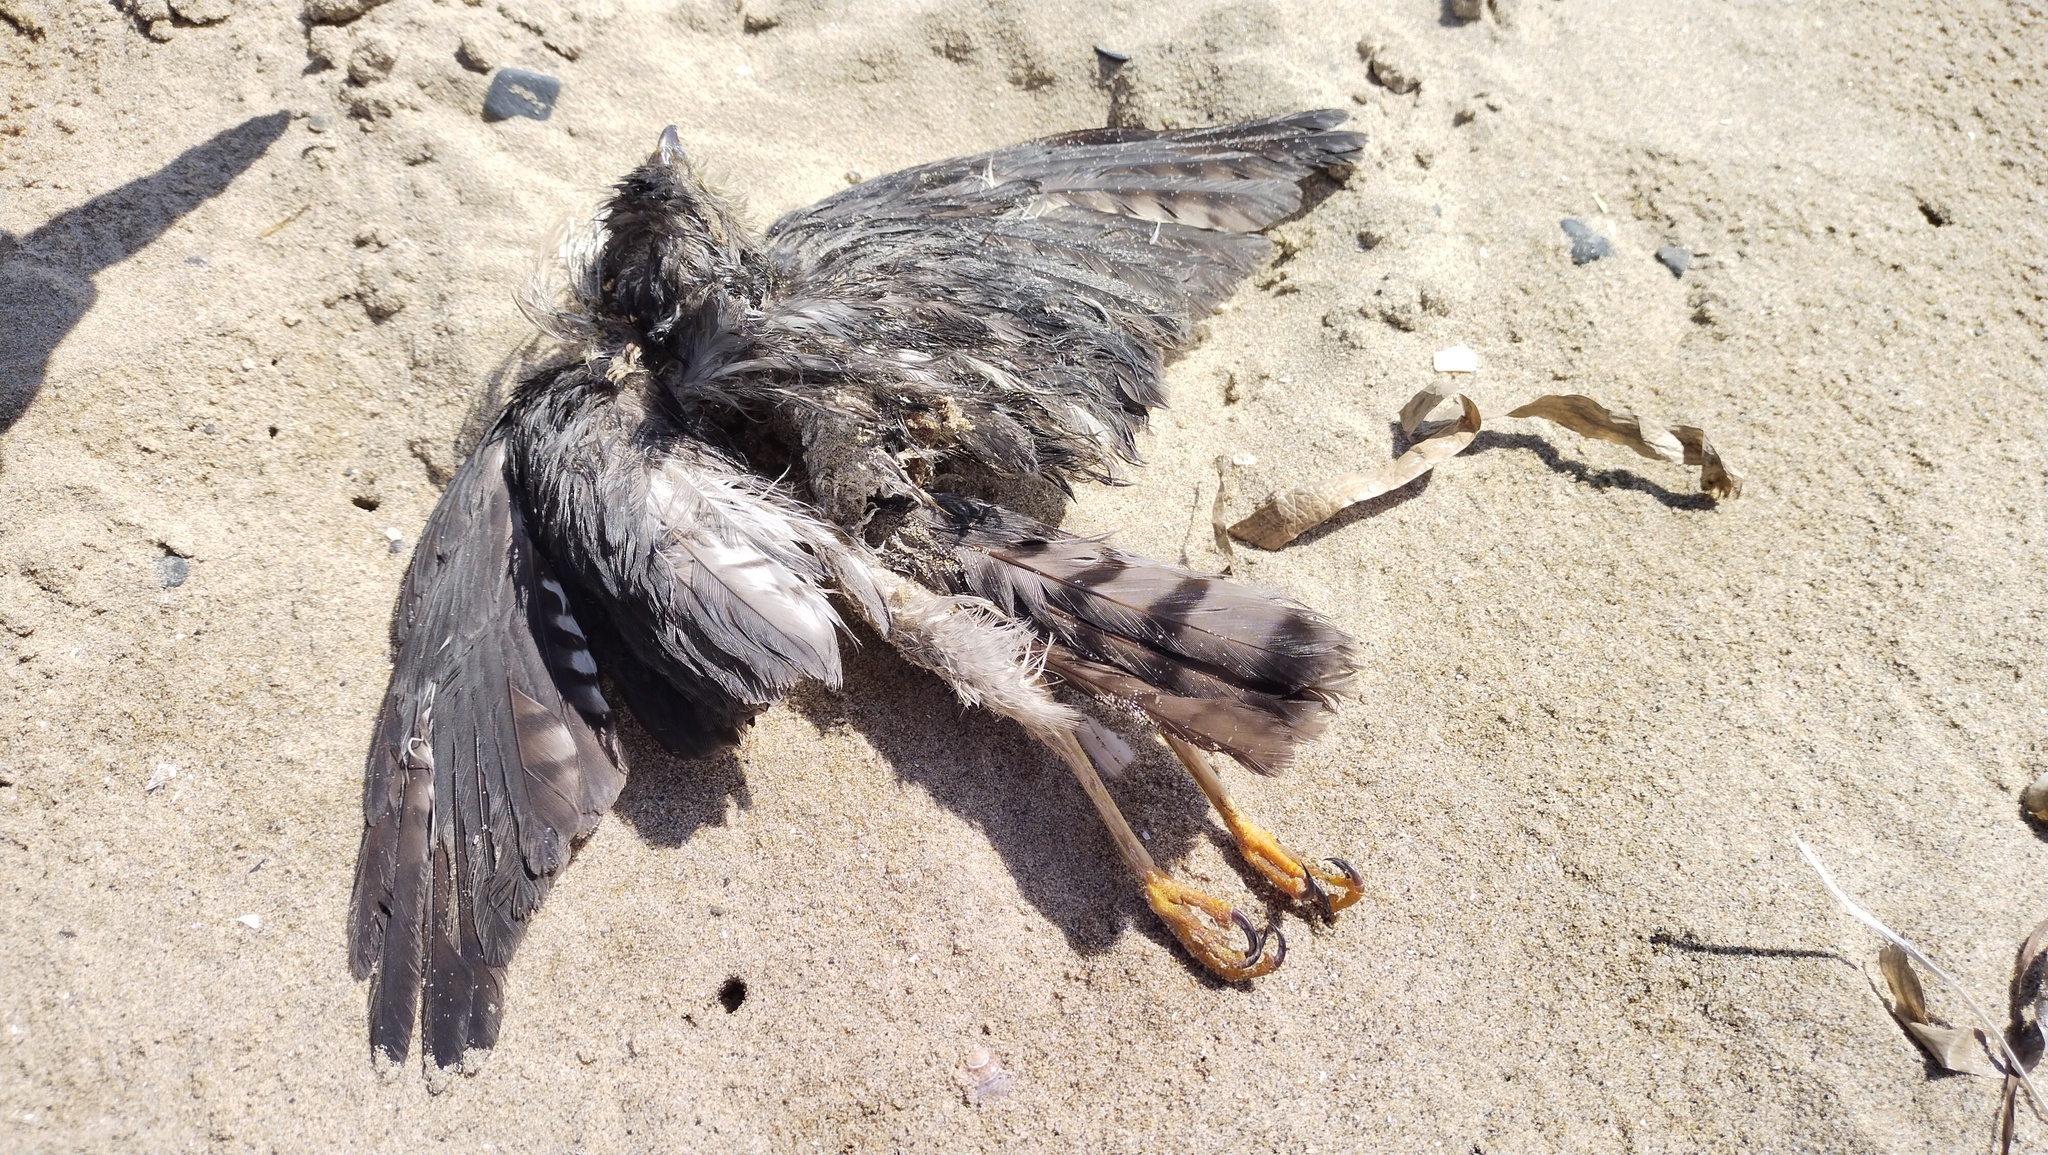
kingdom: Animalia
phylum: Chordata
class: Aves
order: Accipitriformes
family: Accipitridae
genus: Accipiter
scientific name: Accipiter gularis
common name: Japanese sparrowhawk
